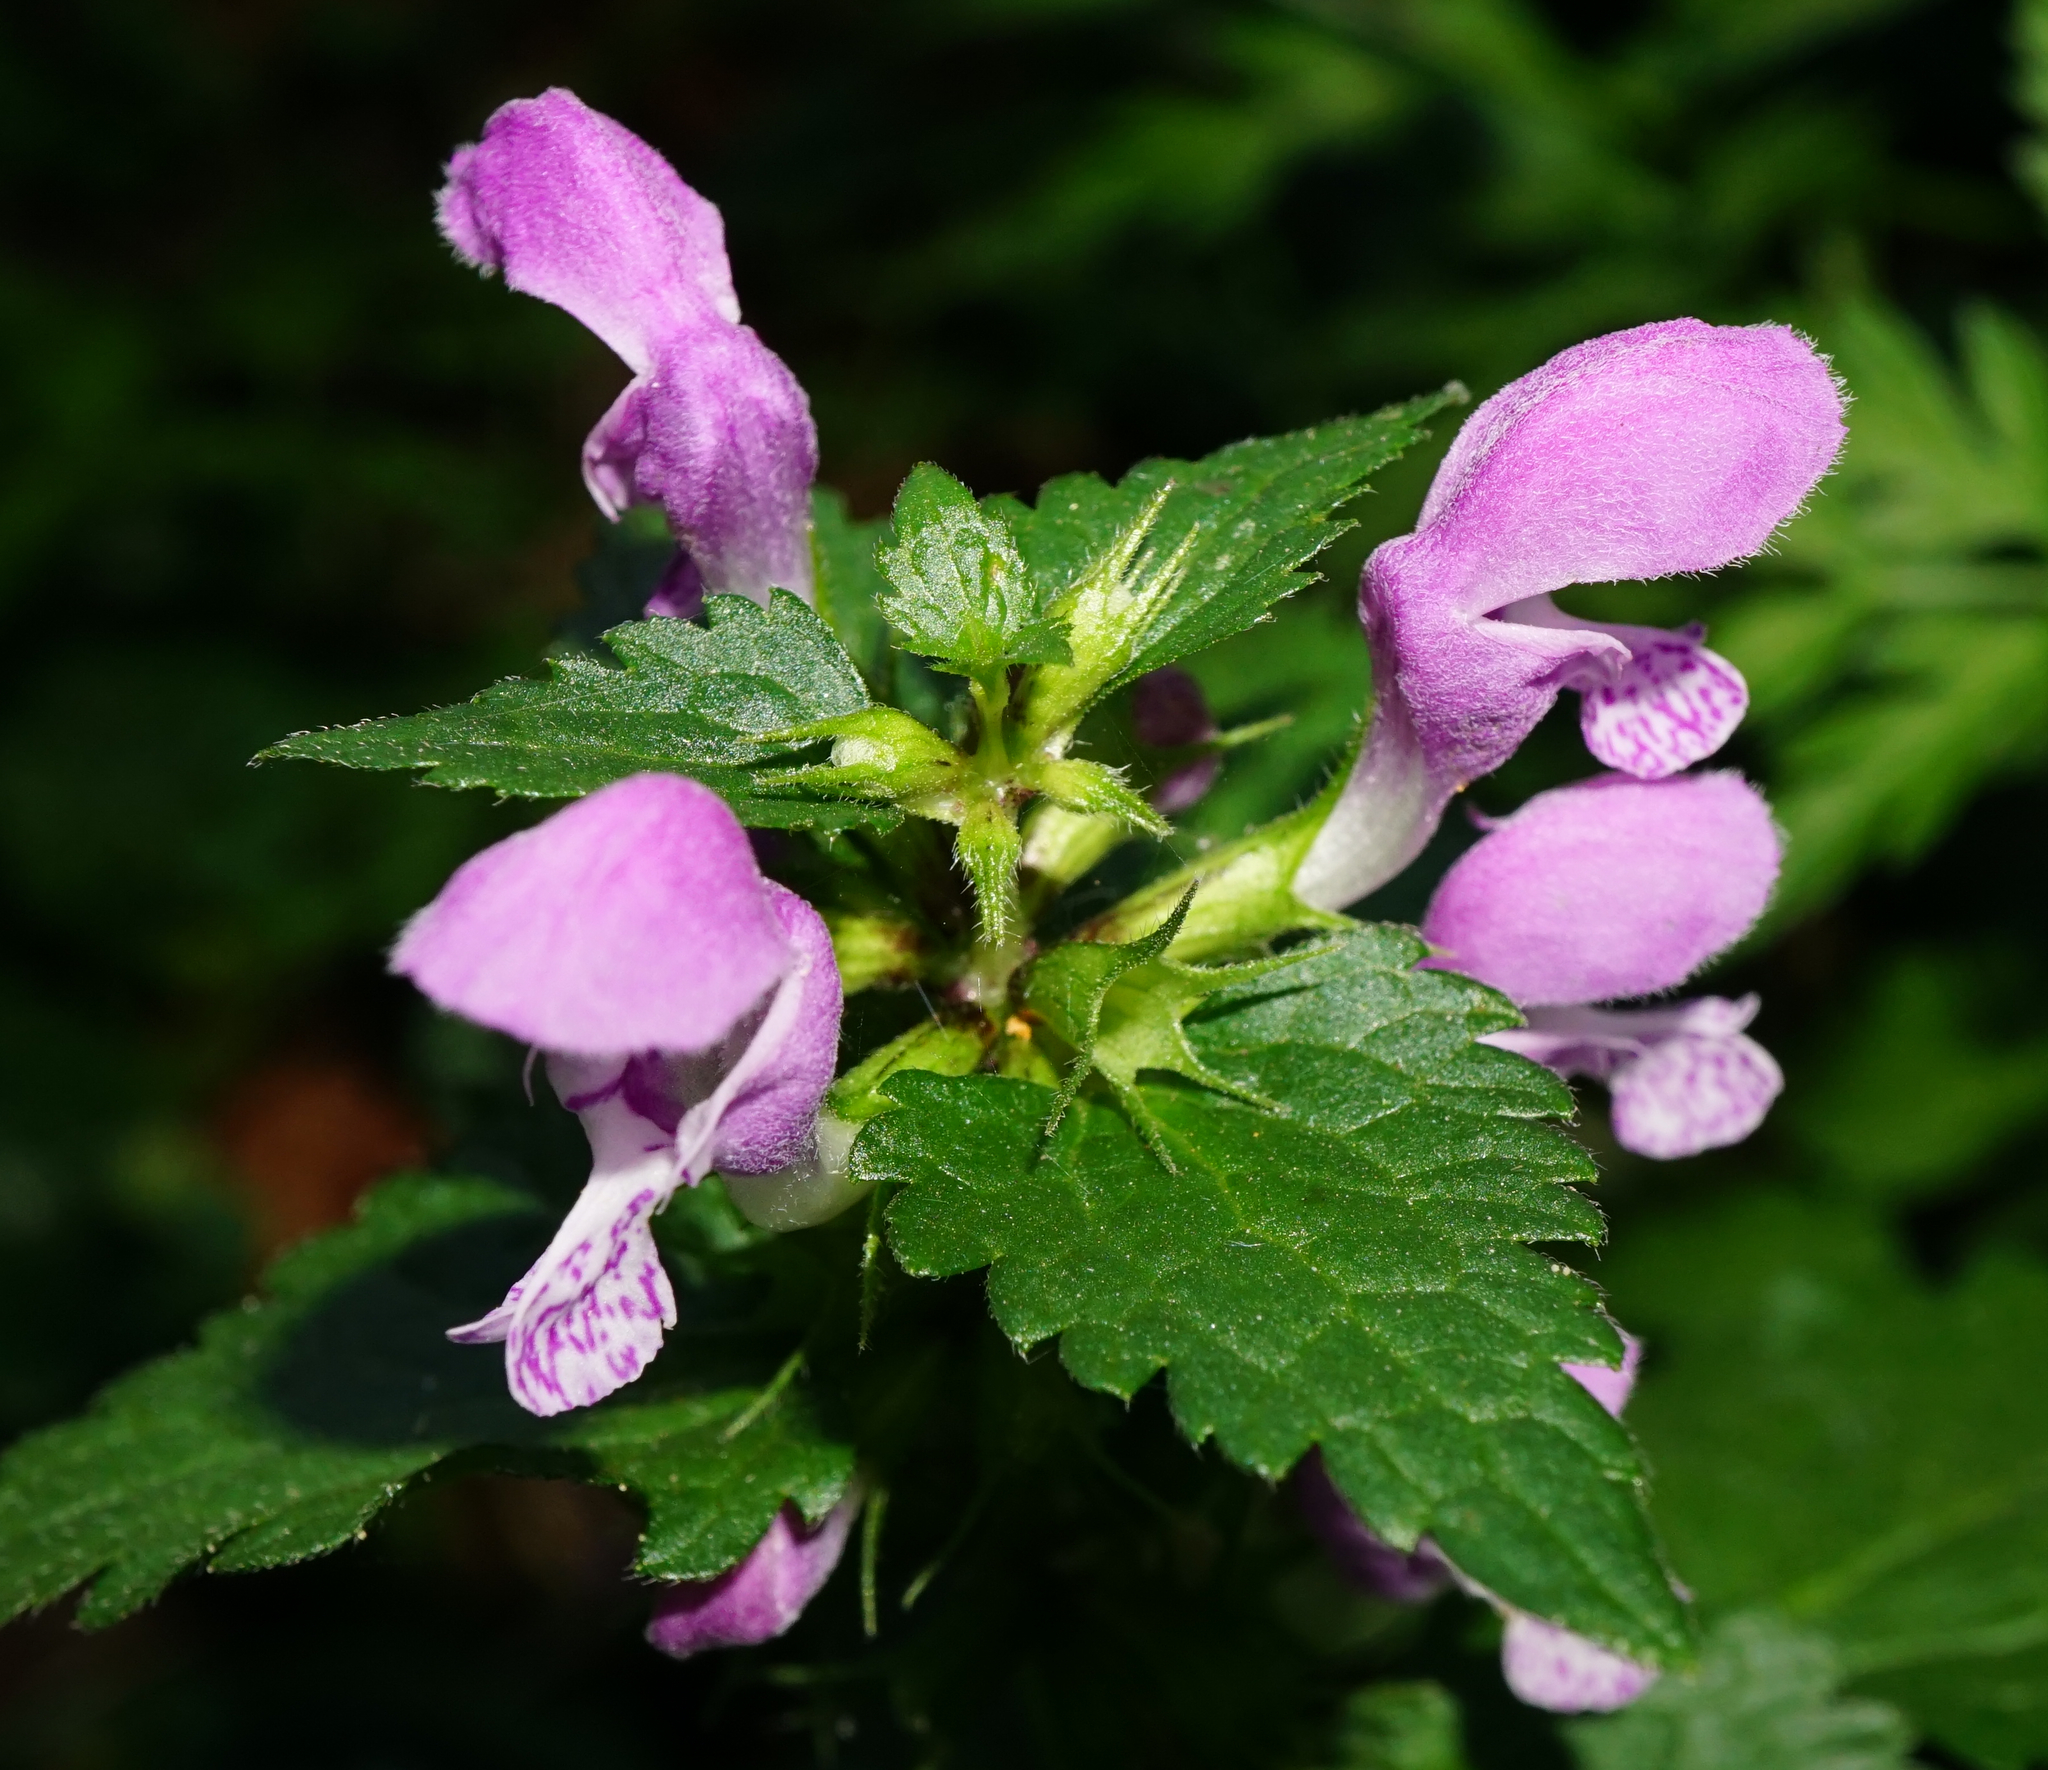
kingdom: Plantae
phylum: Tracheophyta
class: Magnoliopsida
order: Lamiales
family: Lamiaceae
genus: Lamium
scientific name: Lamium maculatum
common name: Spotted dead-nettle
